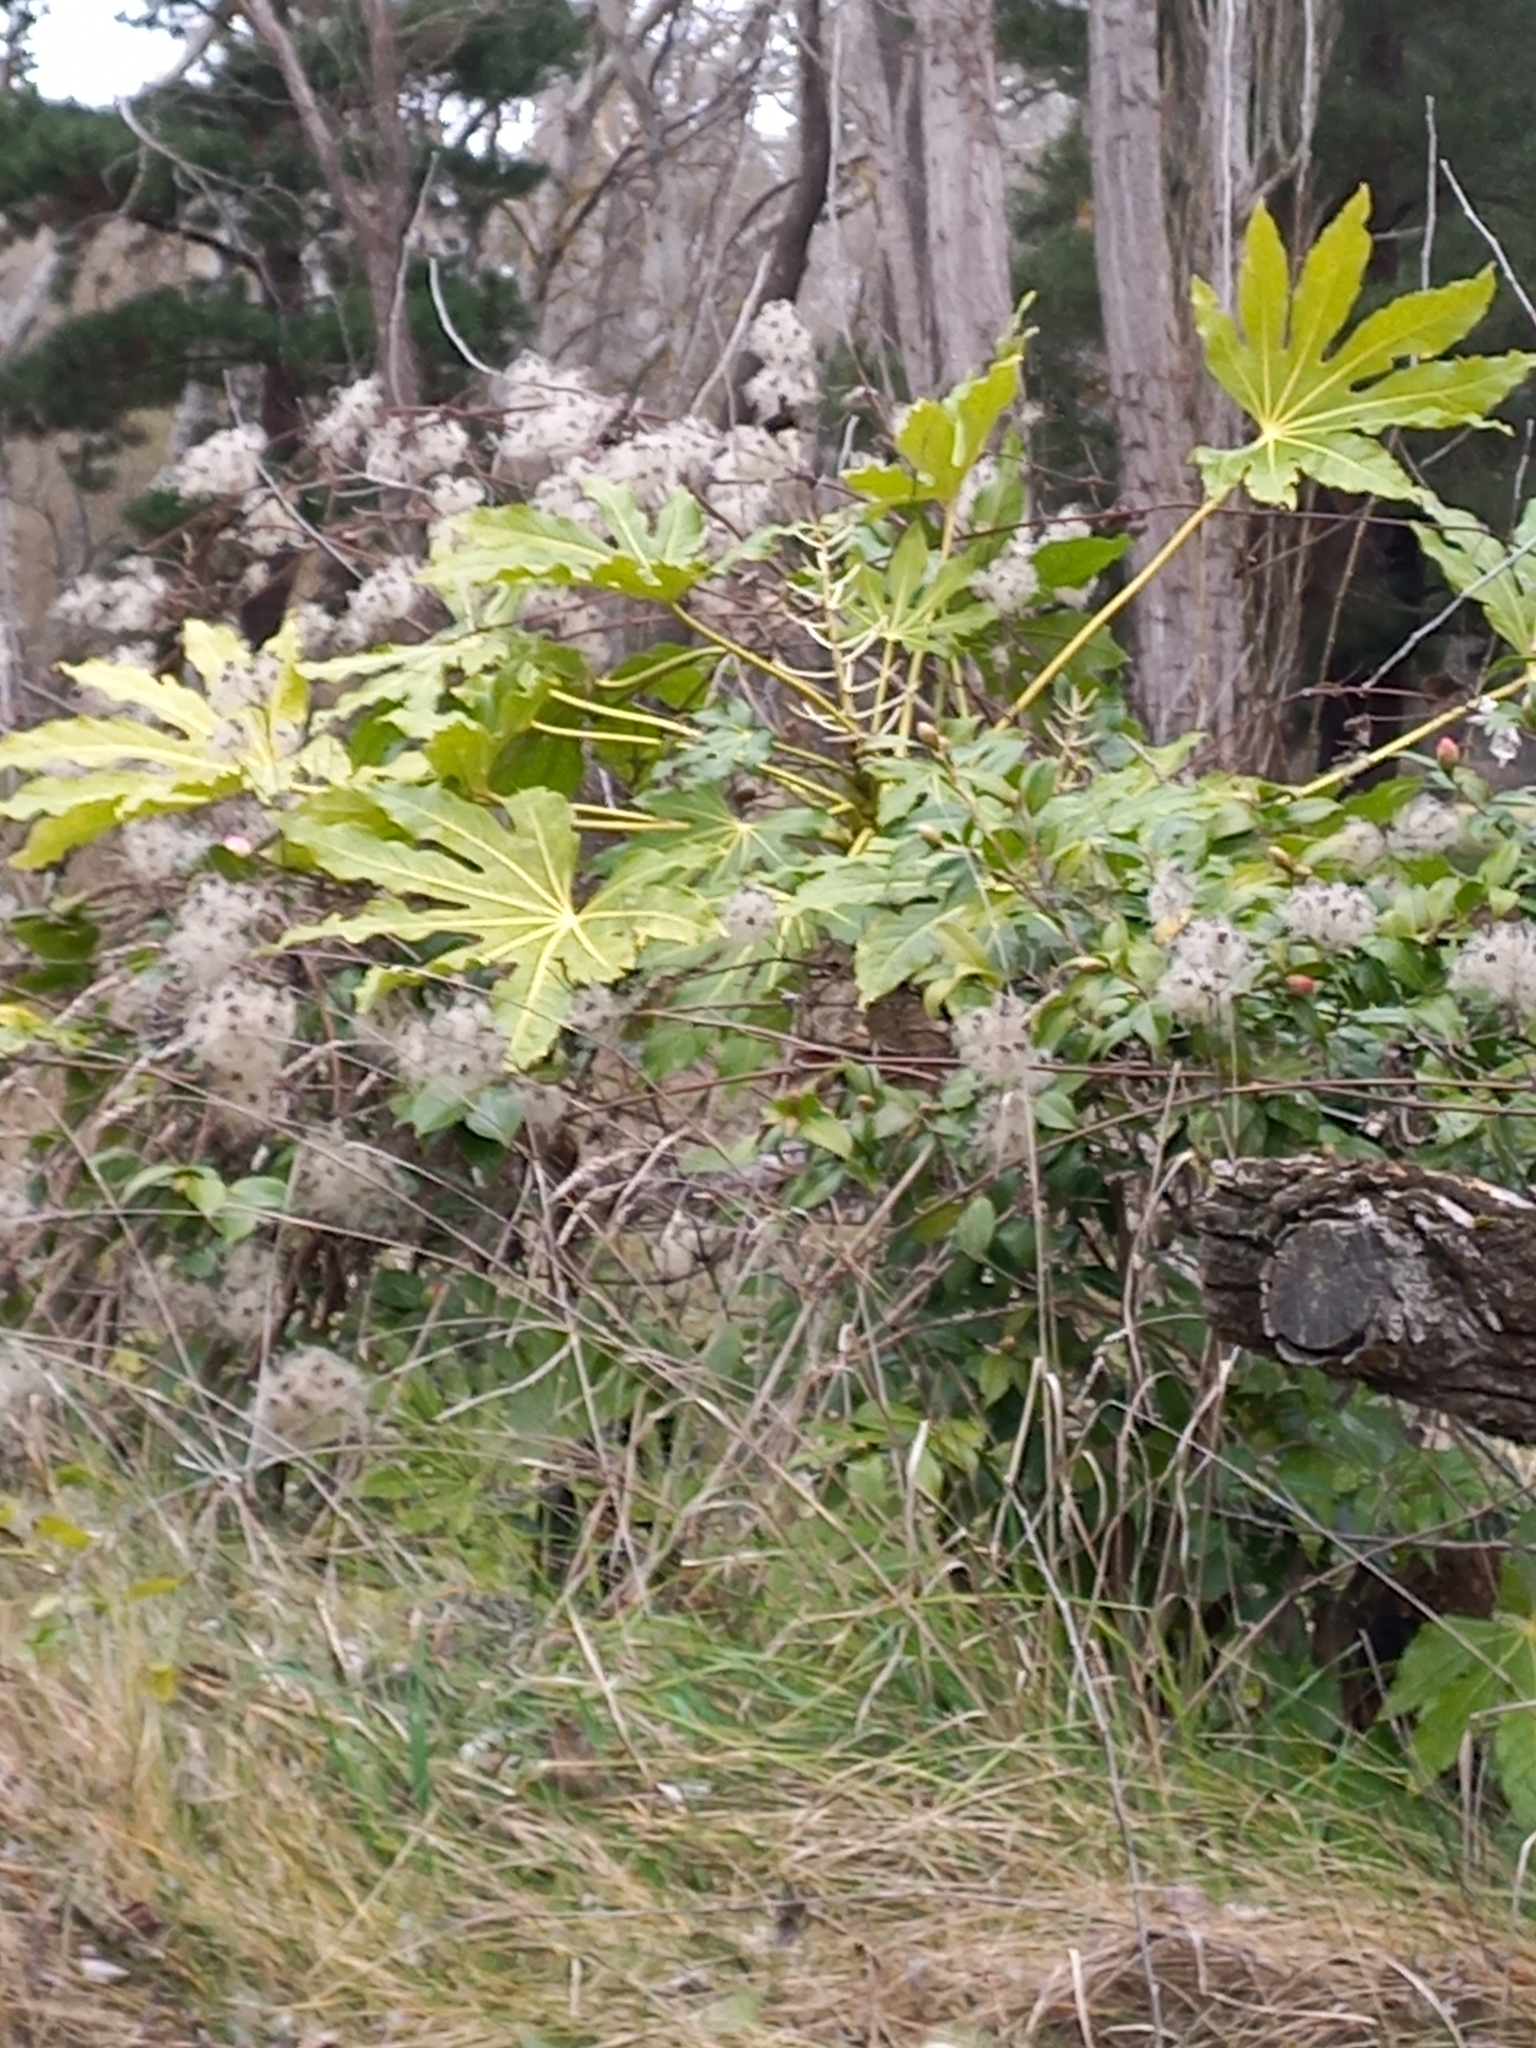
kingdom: Plantae
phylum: Tracheophyta
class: Magnoliopsida
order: Apiales
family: Araliaceae
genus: Fatsia
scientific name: Fatsia japonica
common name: Fatsia
